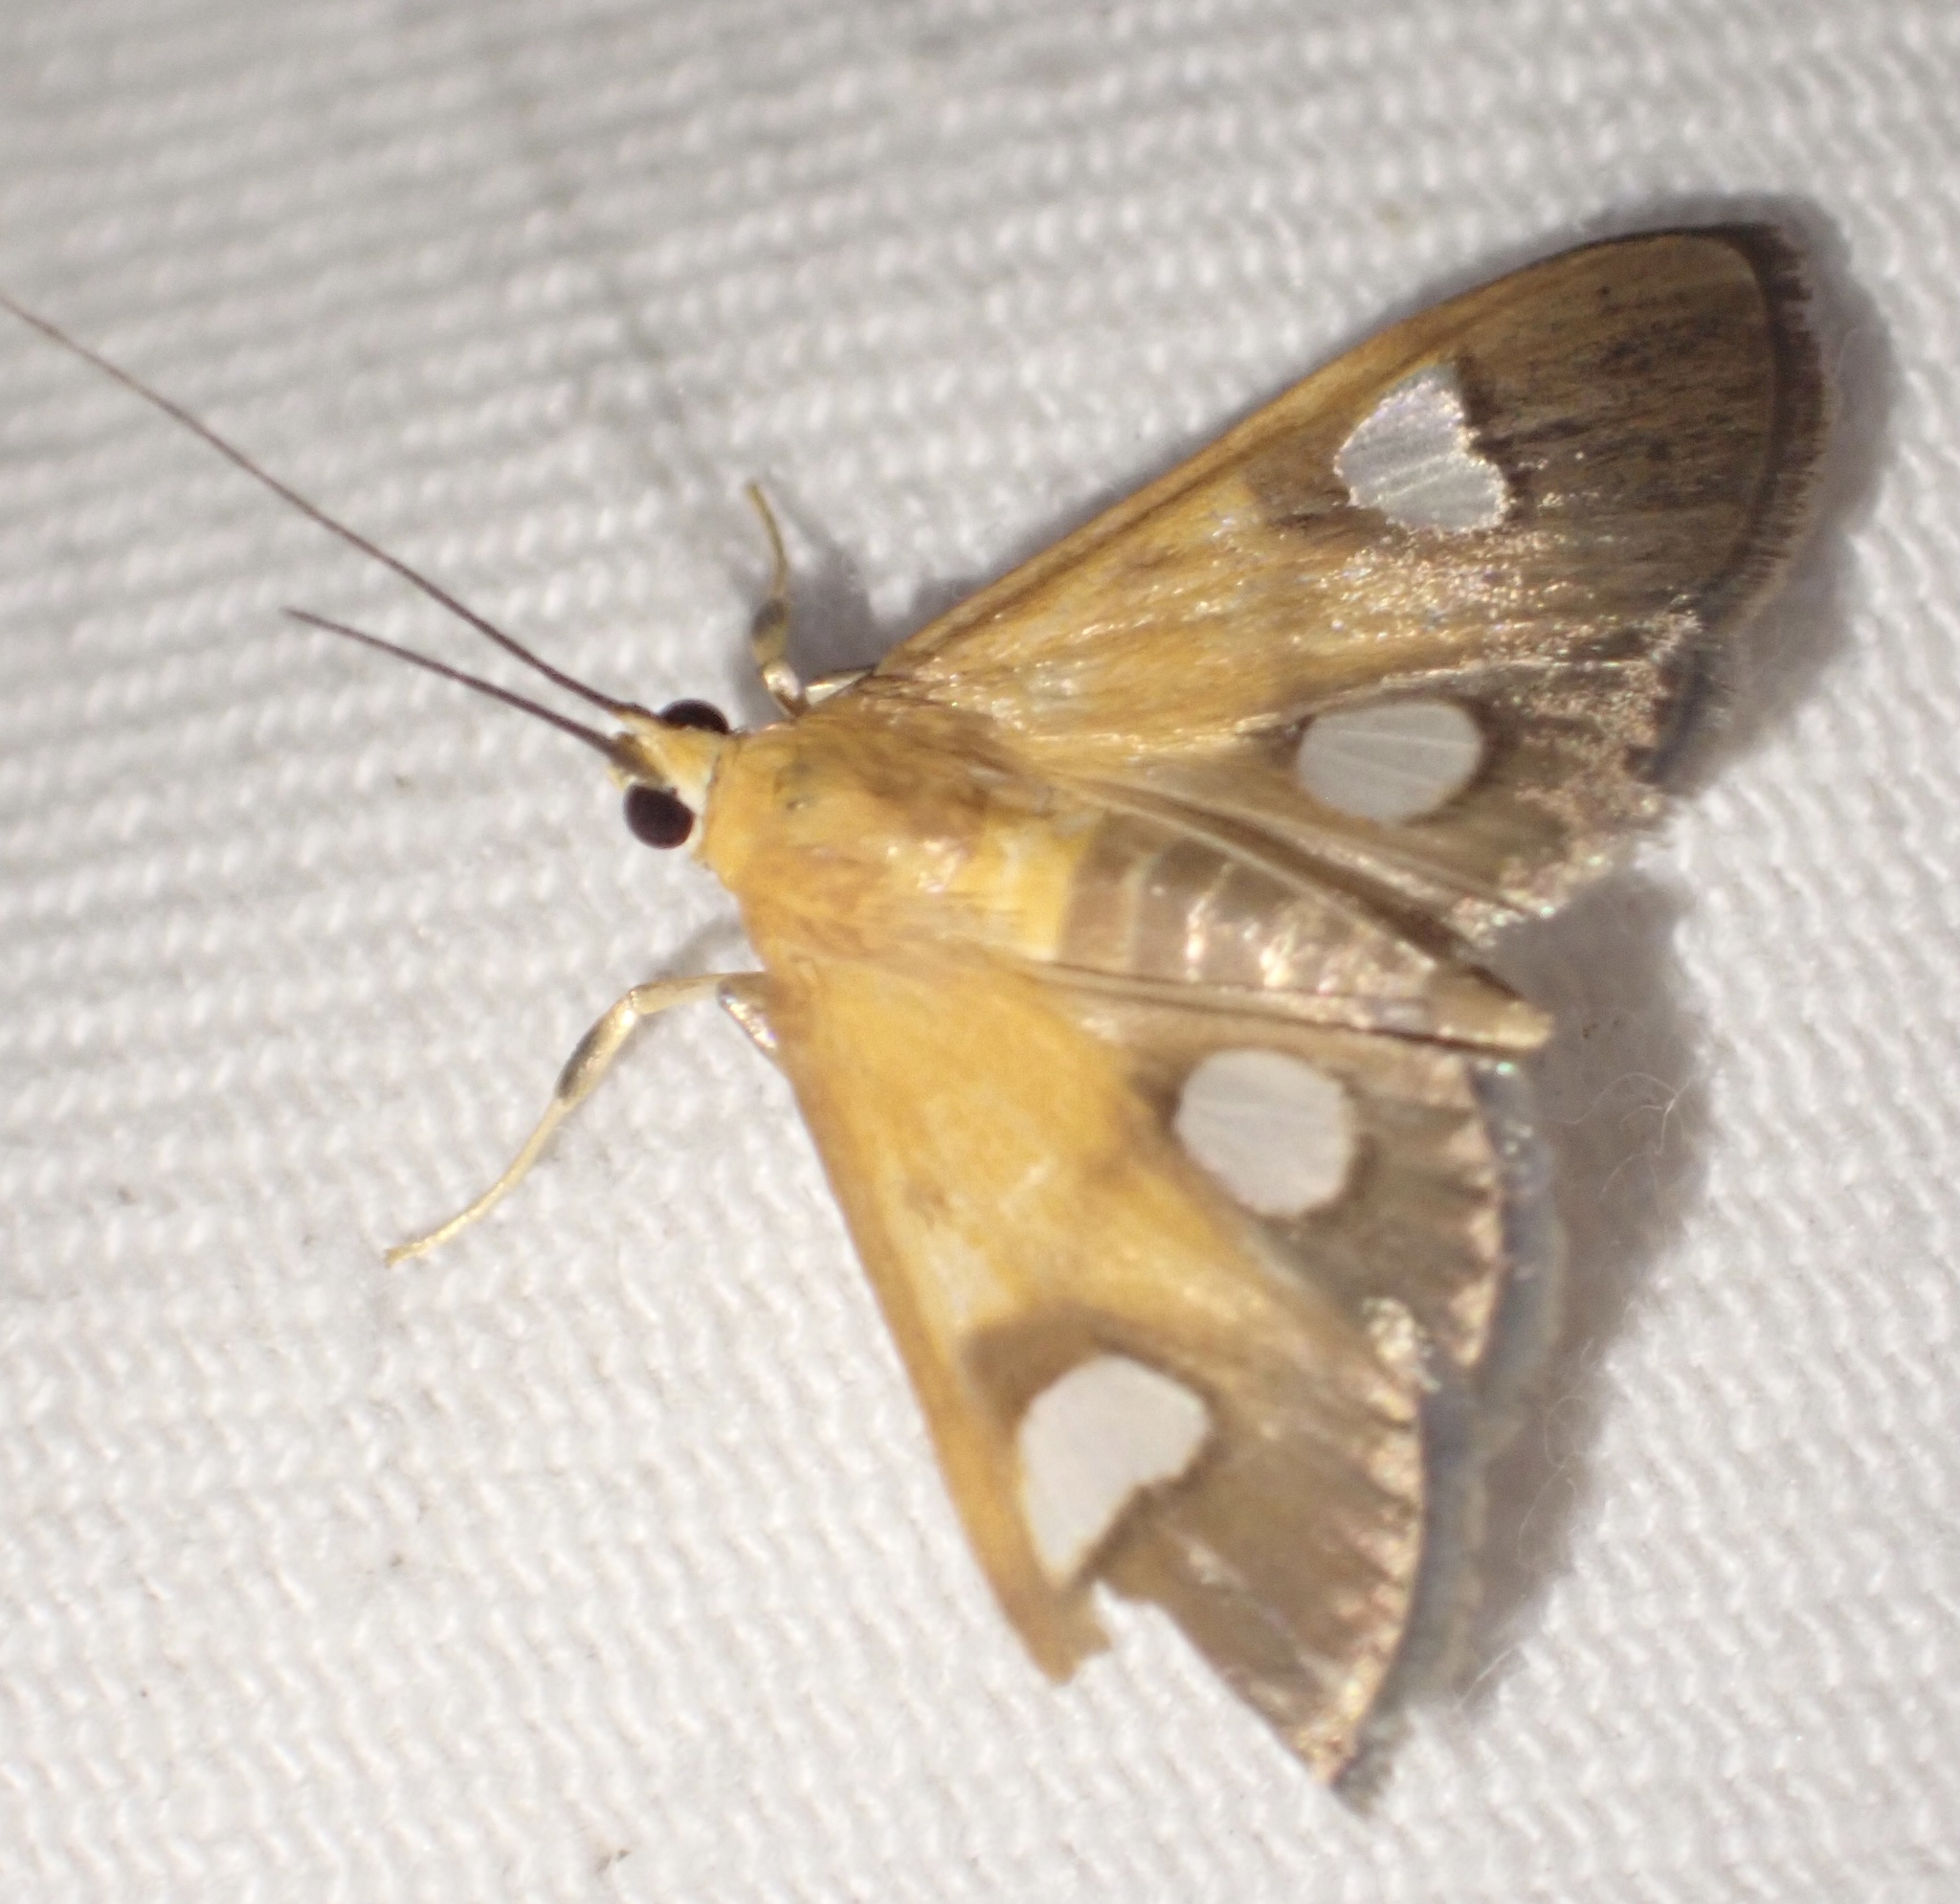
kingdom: Animalia
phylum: Arthropoda
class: Insecta
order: Lepidoptera
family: Crambidae
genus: Ulopeza
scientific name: Ulopeza flavicepsalis
